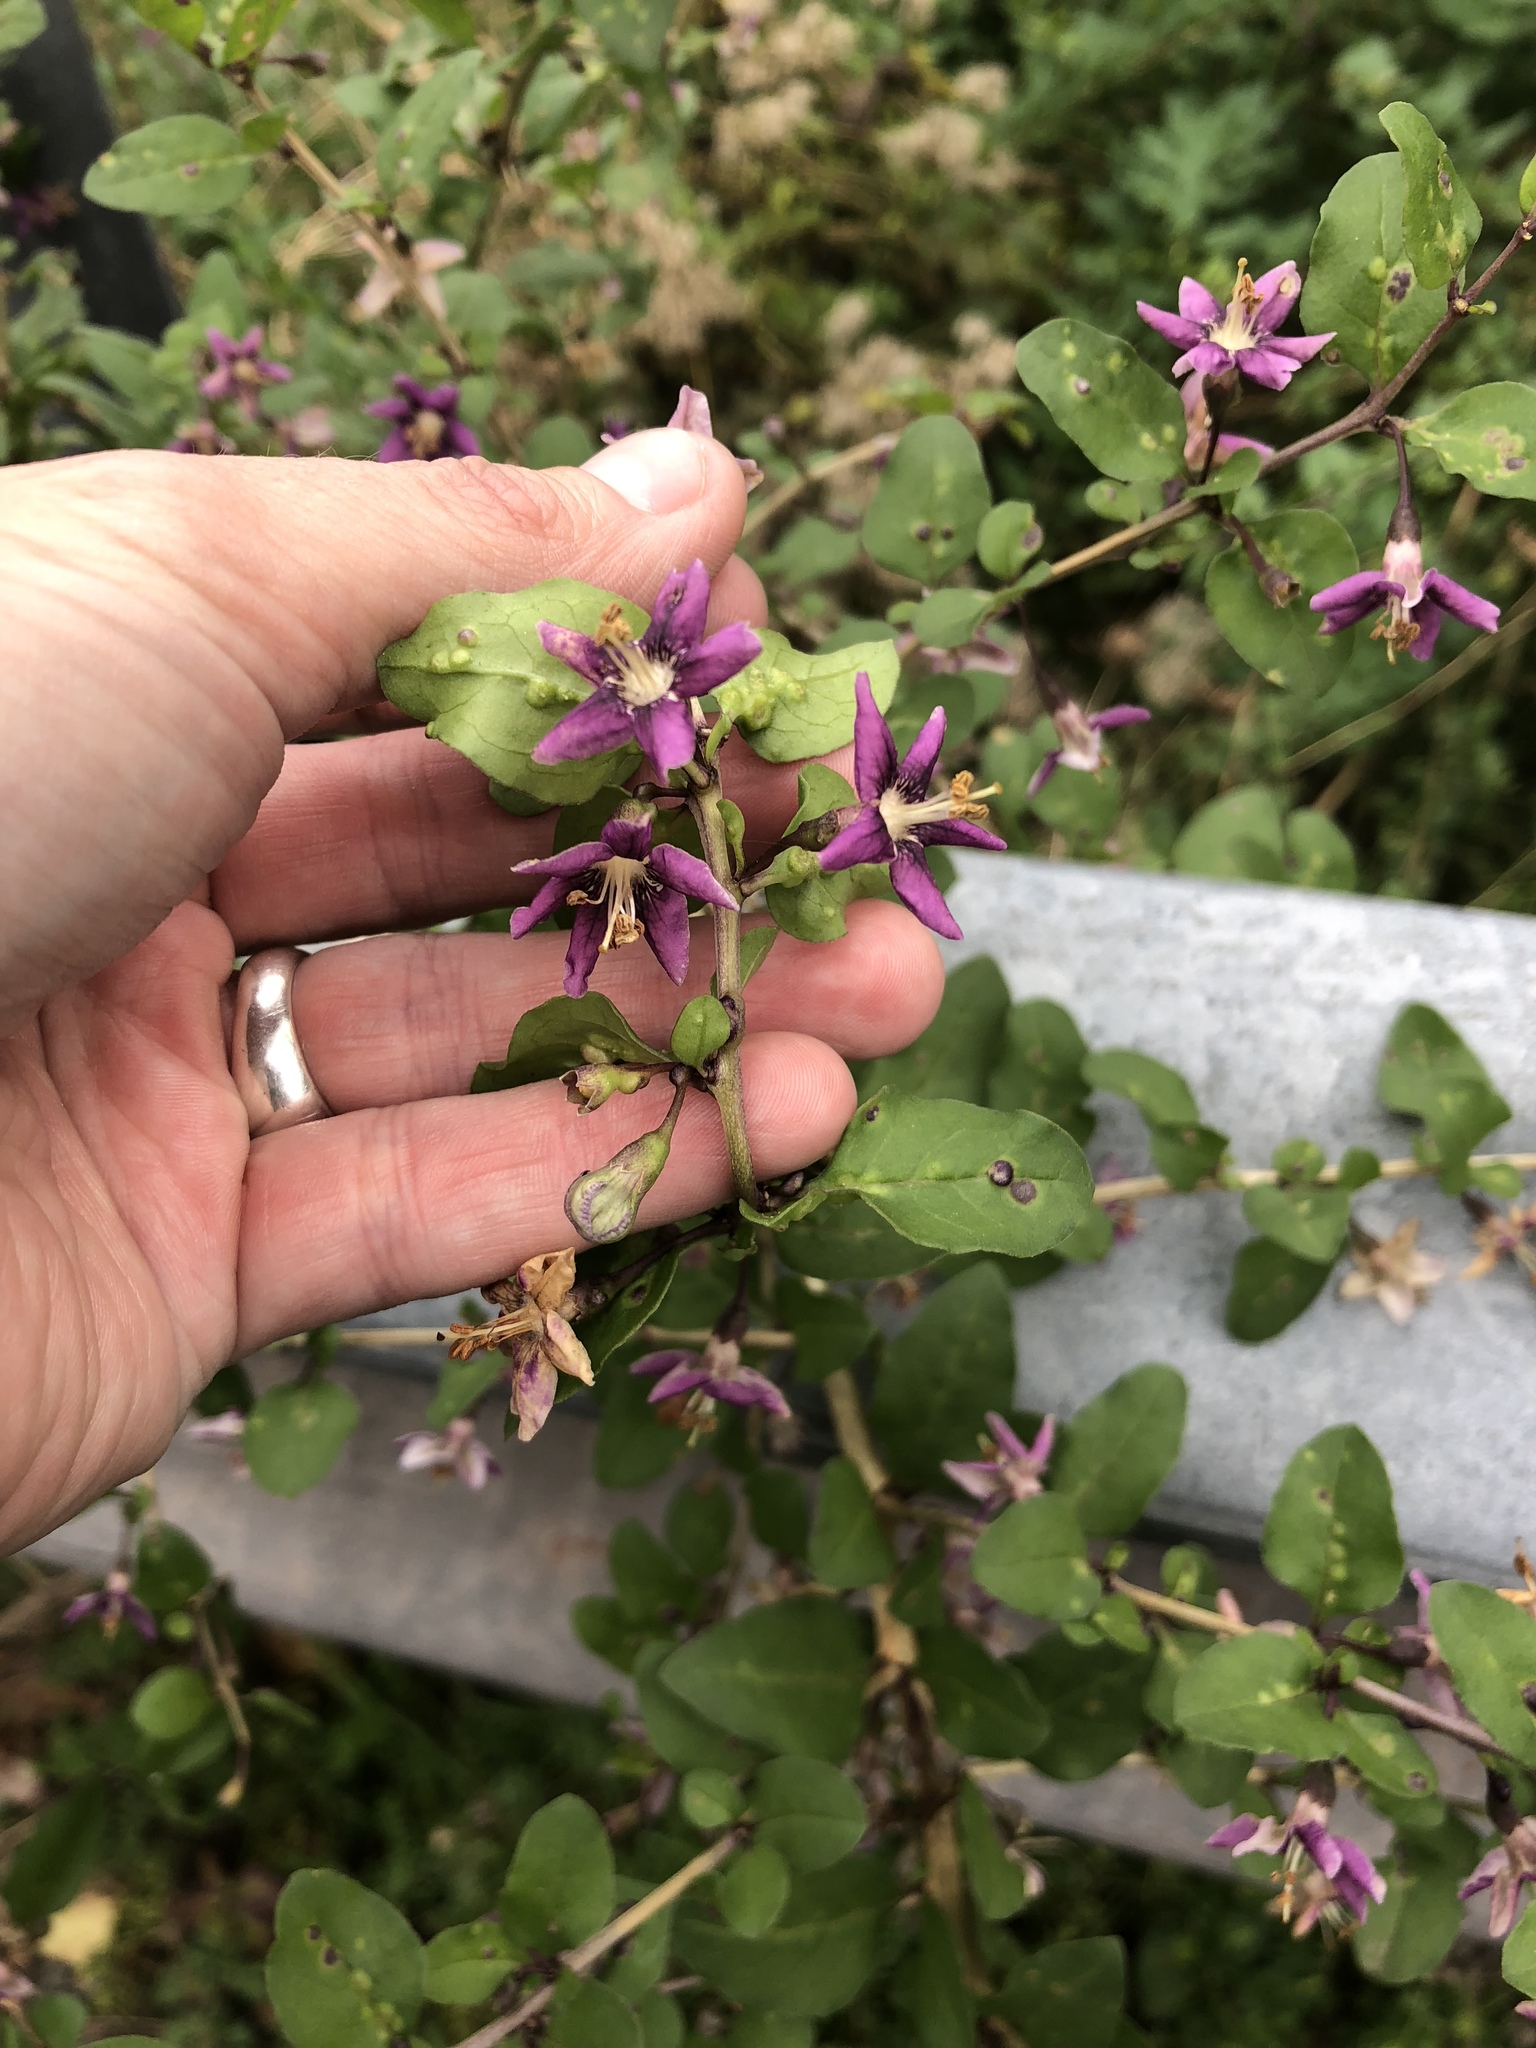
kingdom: Plantae
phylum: Tracheophyta
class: Magnoliopsida
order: Solanales
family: Solanaceae
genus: Lycium
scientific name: Lycium barbarum
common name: Duke of argyll's teaplant
